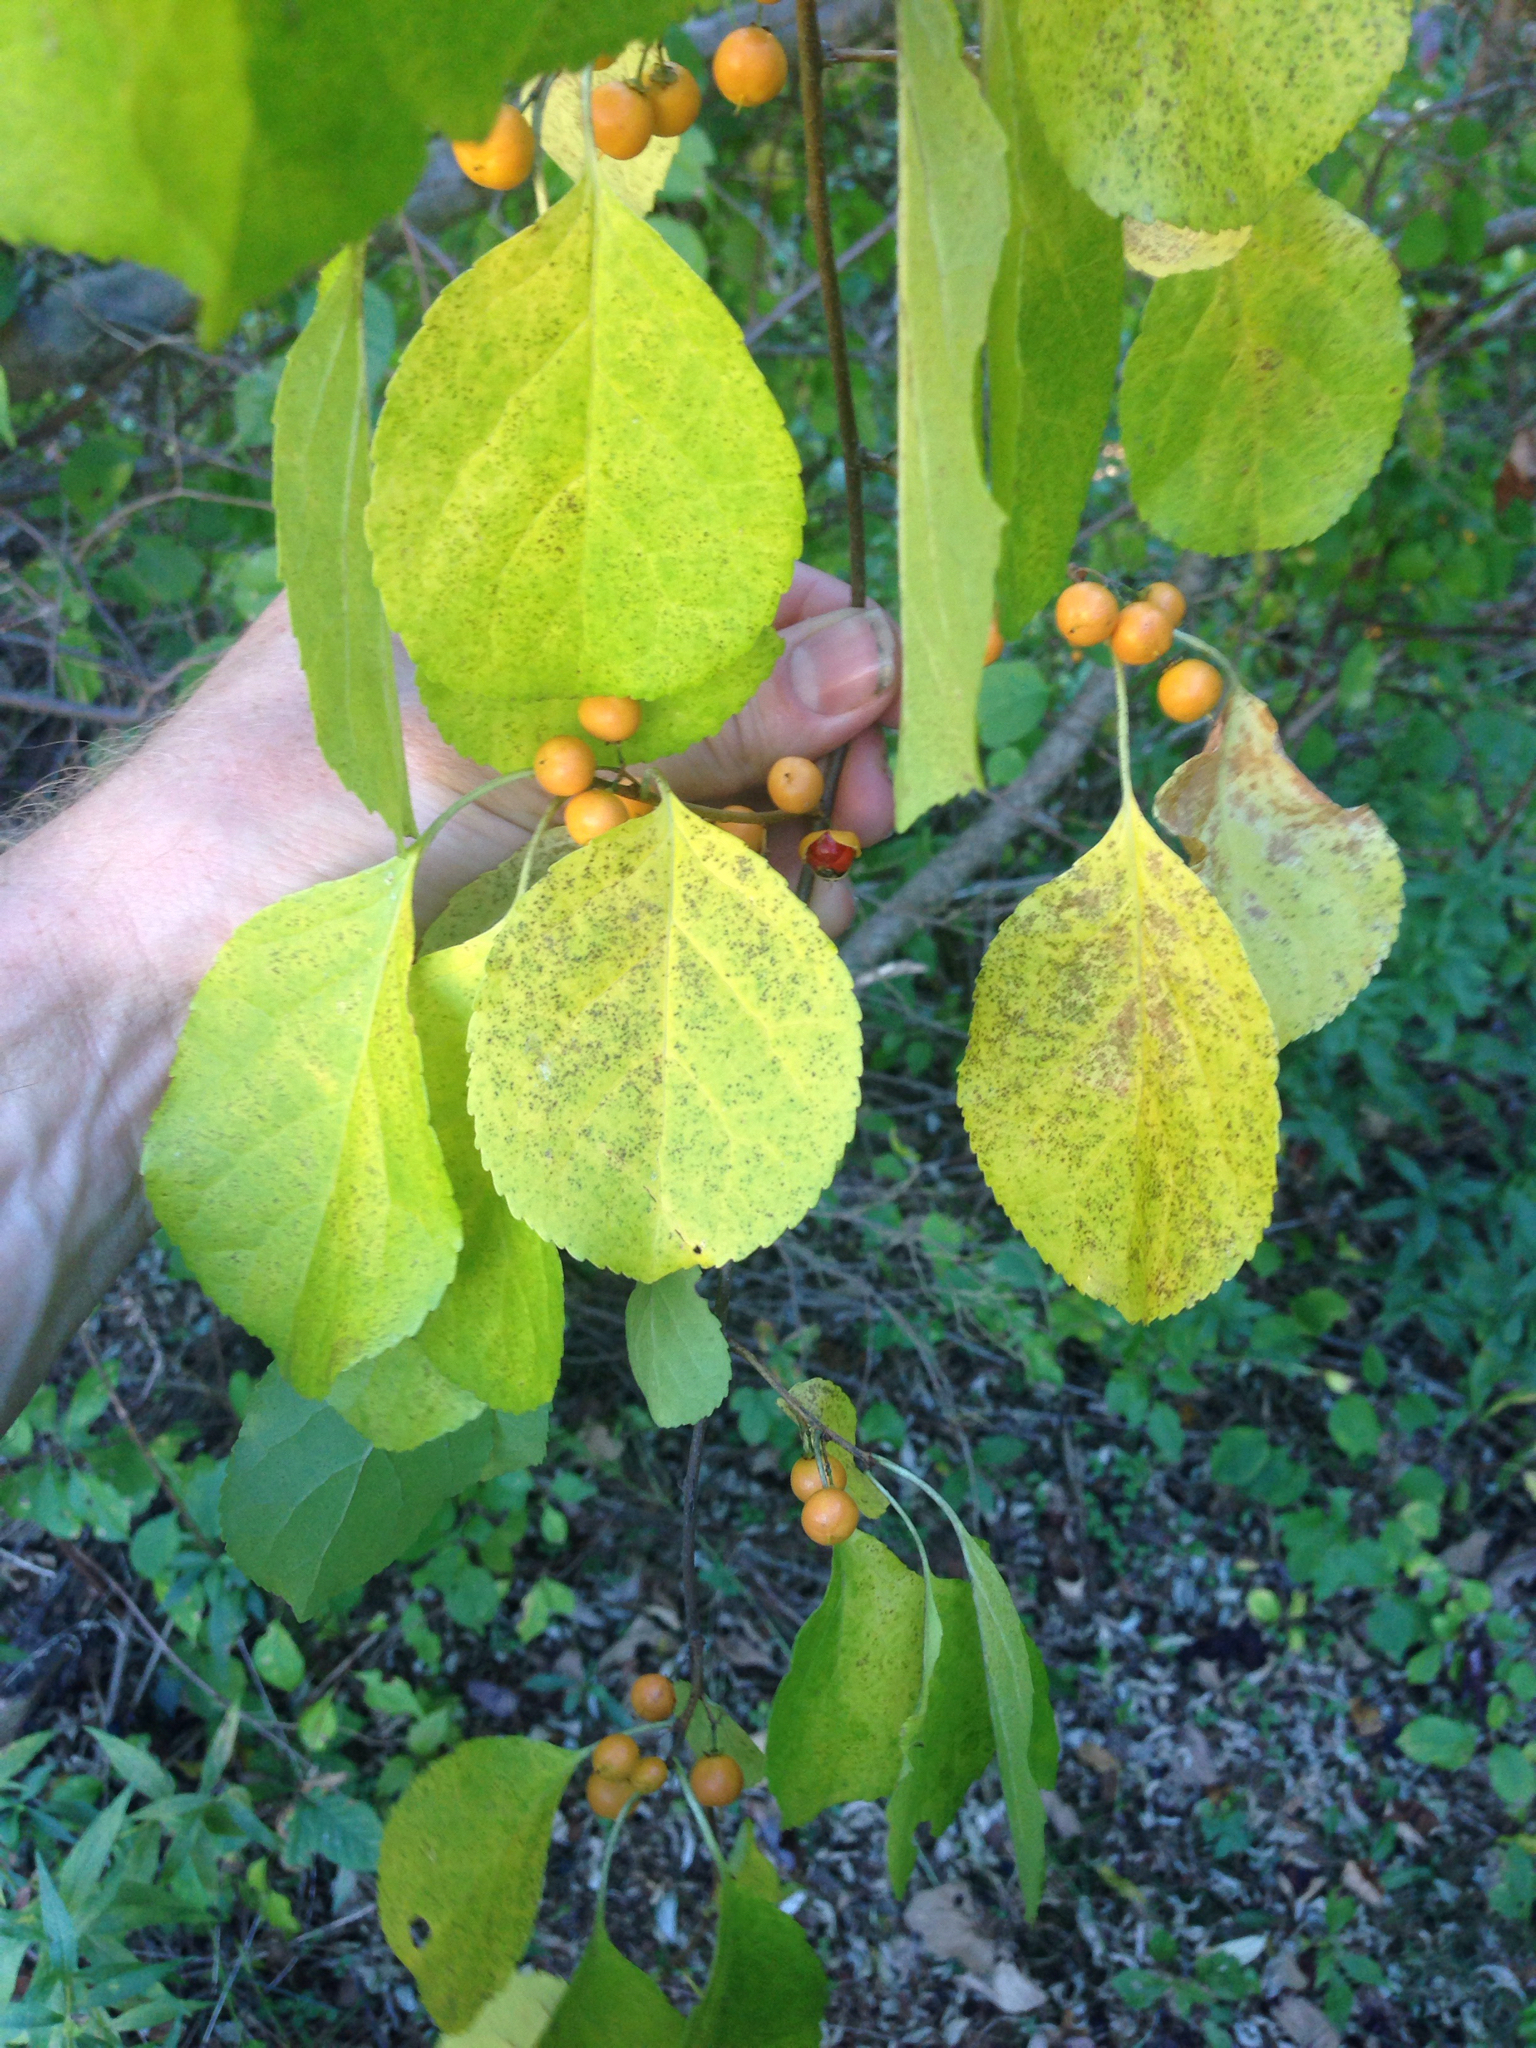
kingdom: Plantae
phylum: Tracheophyta
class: Magnoliopsida
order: Celastrales
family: Celastraceae
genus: Celastrus
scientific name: Celastrus orbiculatus
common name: Oriental bittersweet
